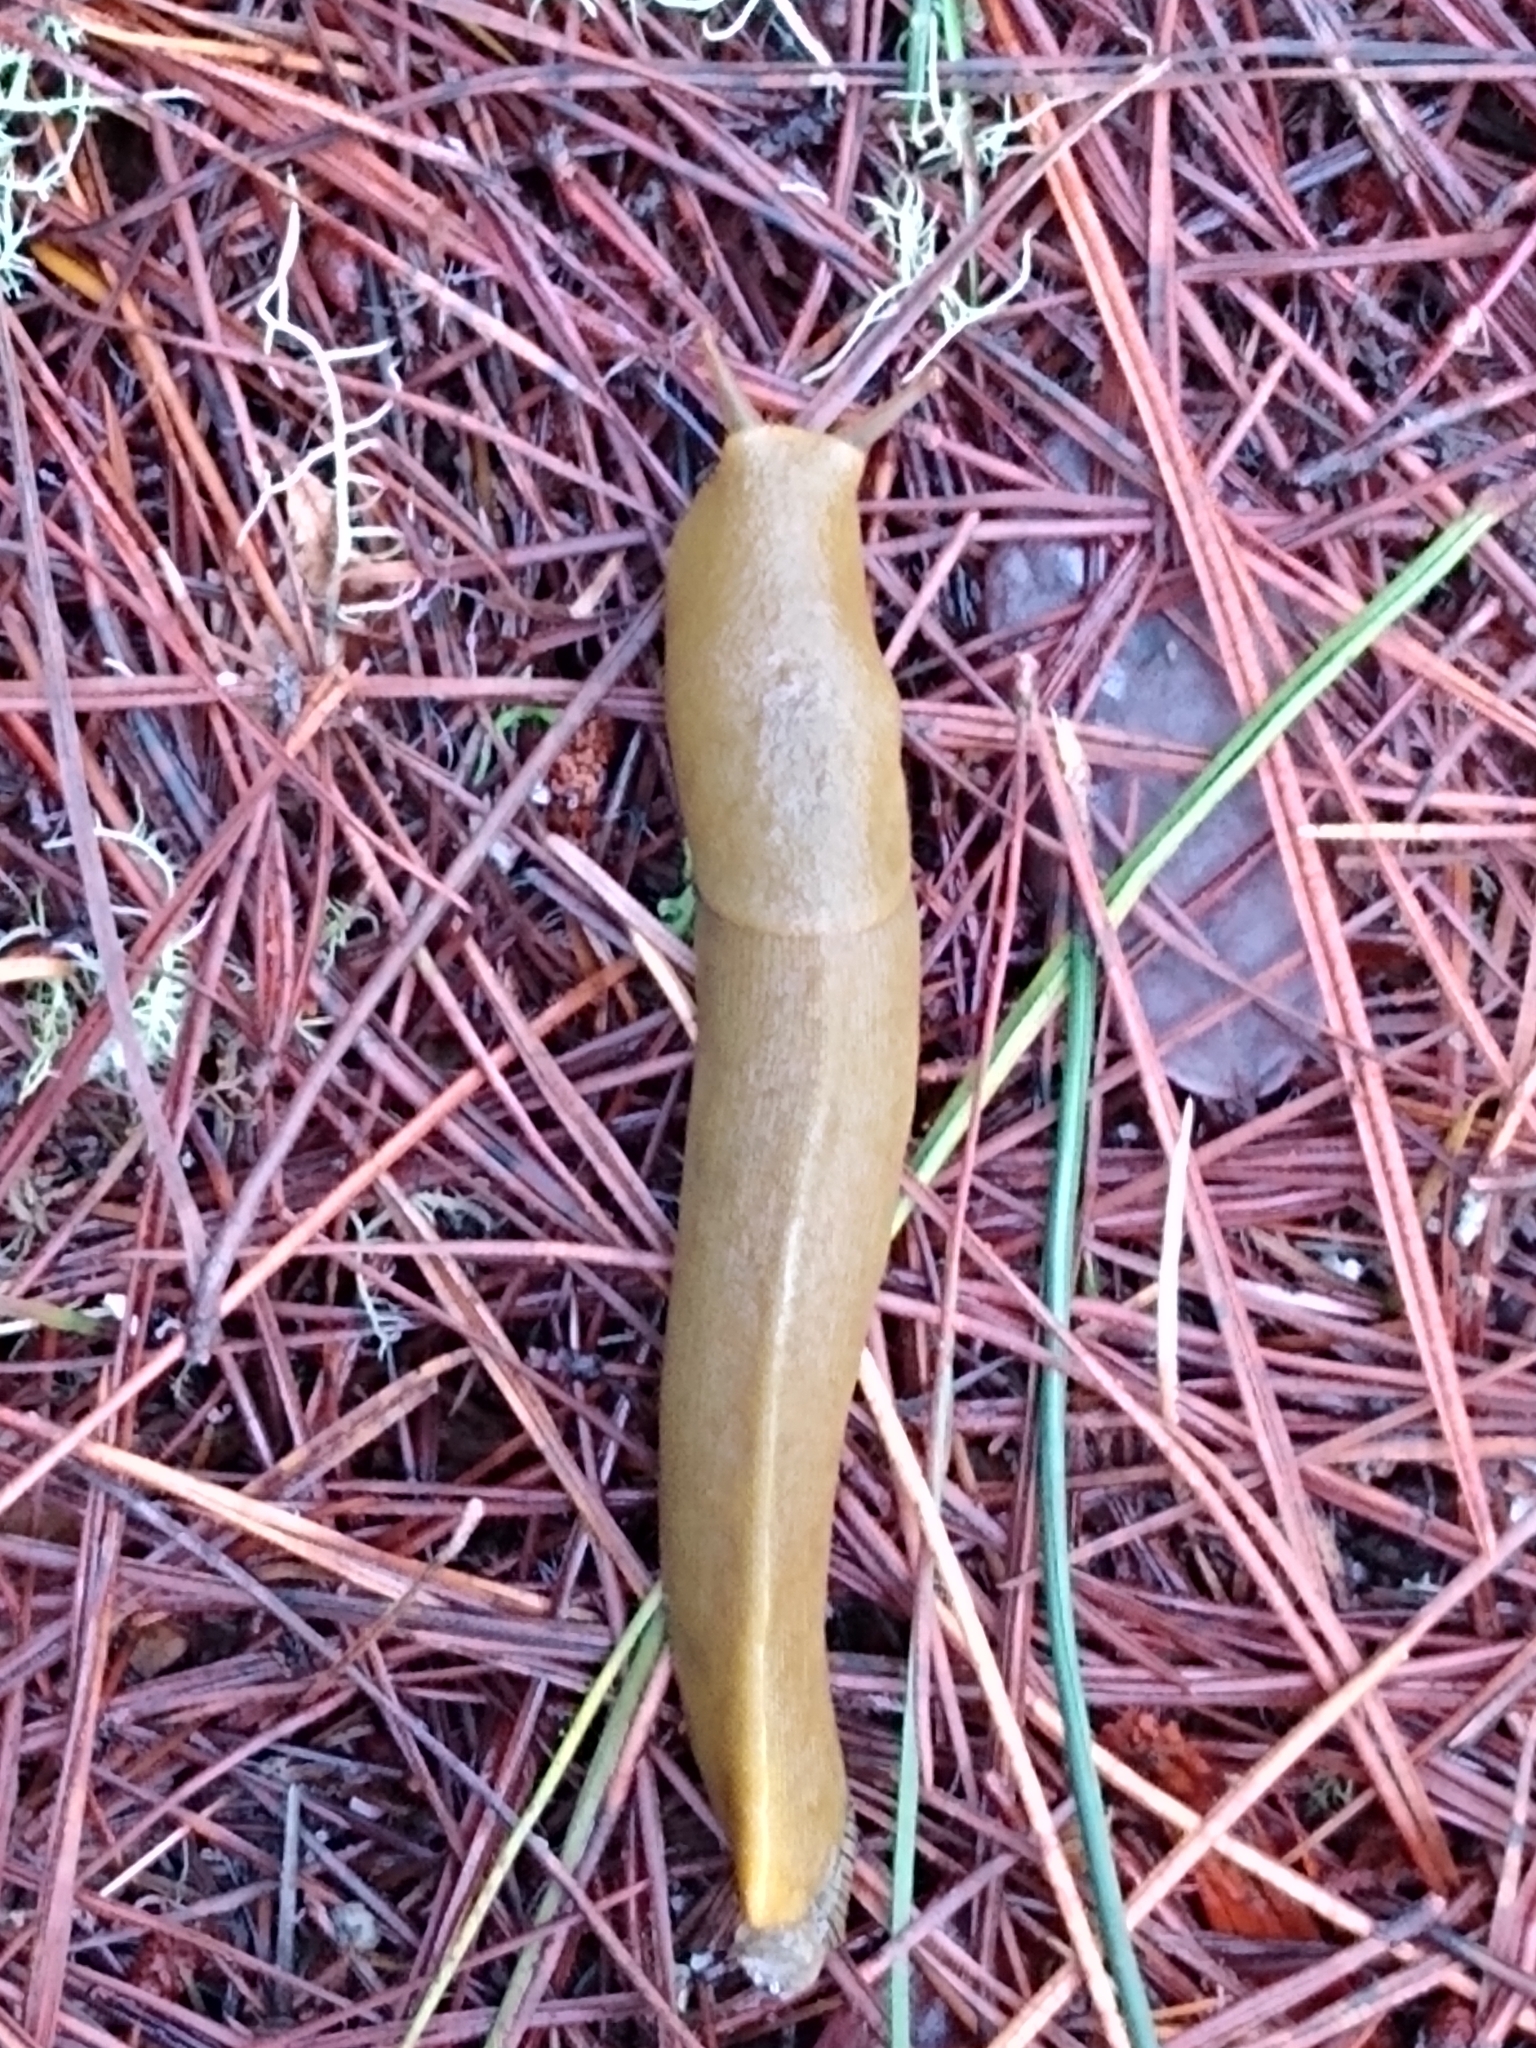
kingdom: Animalia
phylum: Mollusca
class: Gastropoda
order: Stylommatophora
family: Ariolimacidae
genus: Ariolimax
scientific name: Ariolimax buttoni
